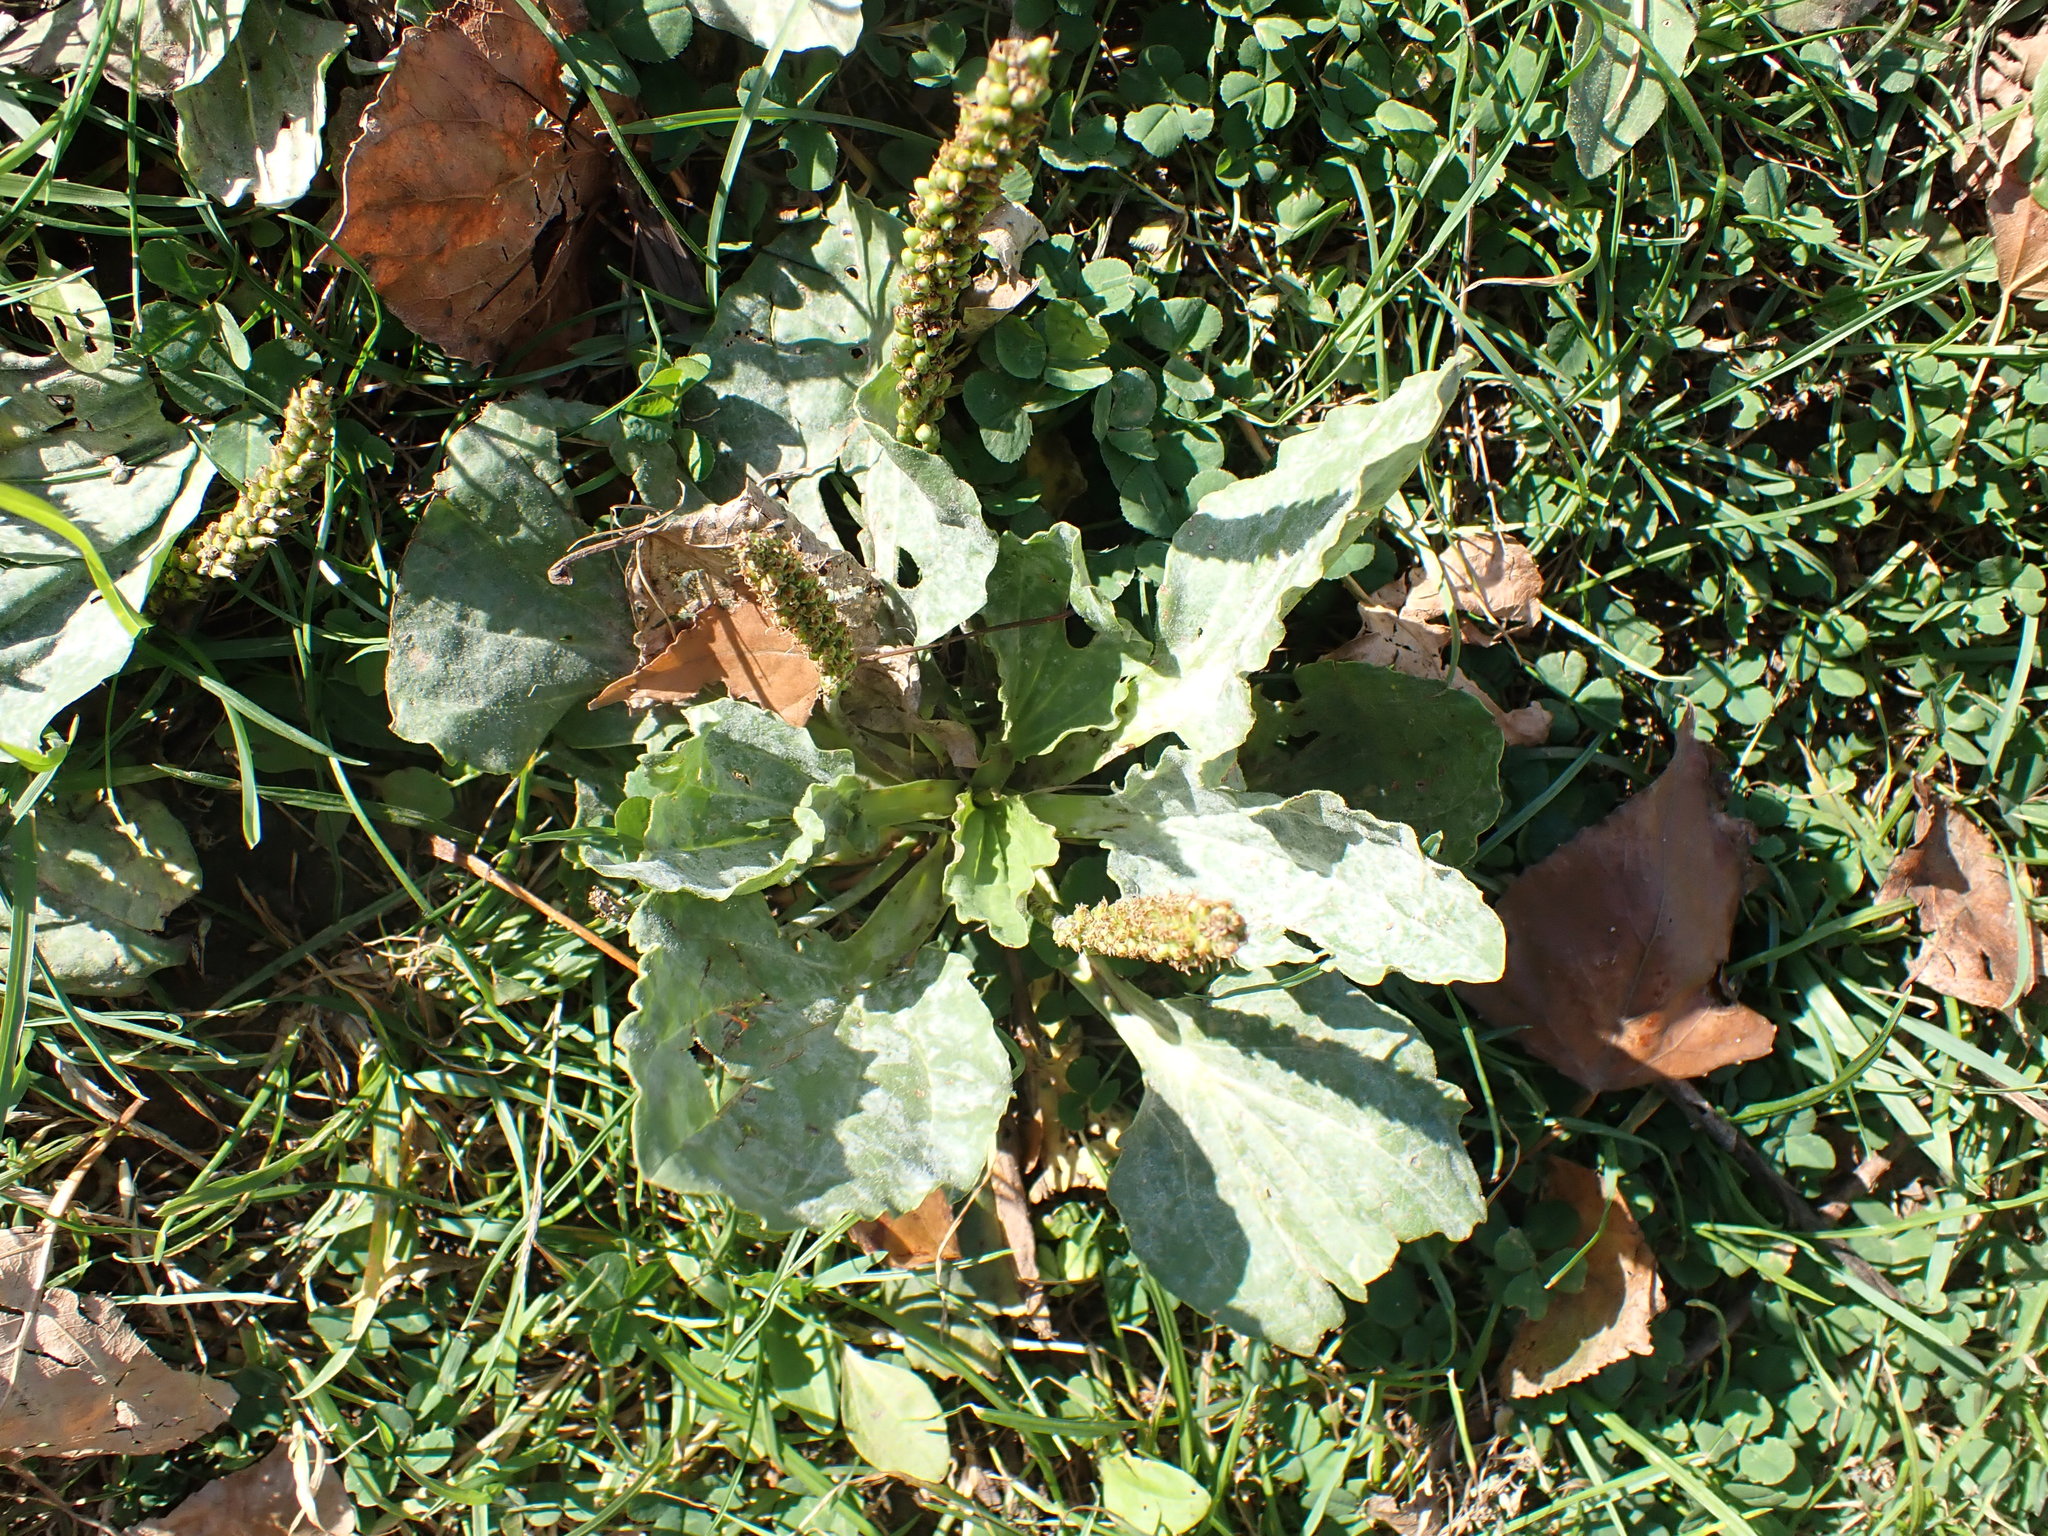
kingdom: Plantae
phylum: Tracheophyta
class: Magnoliopsida
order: Lamiales
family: Plantaginaceae
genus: Plantago
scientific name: Plantago major
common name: Common plantain
